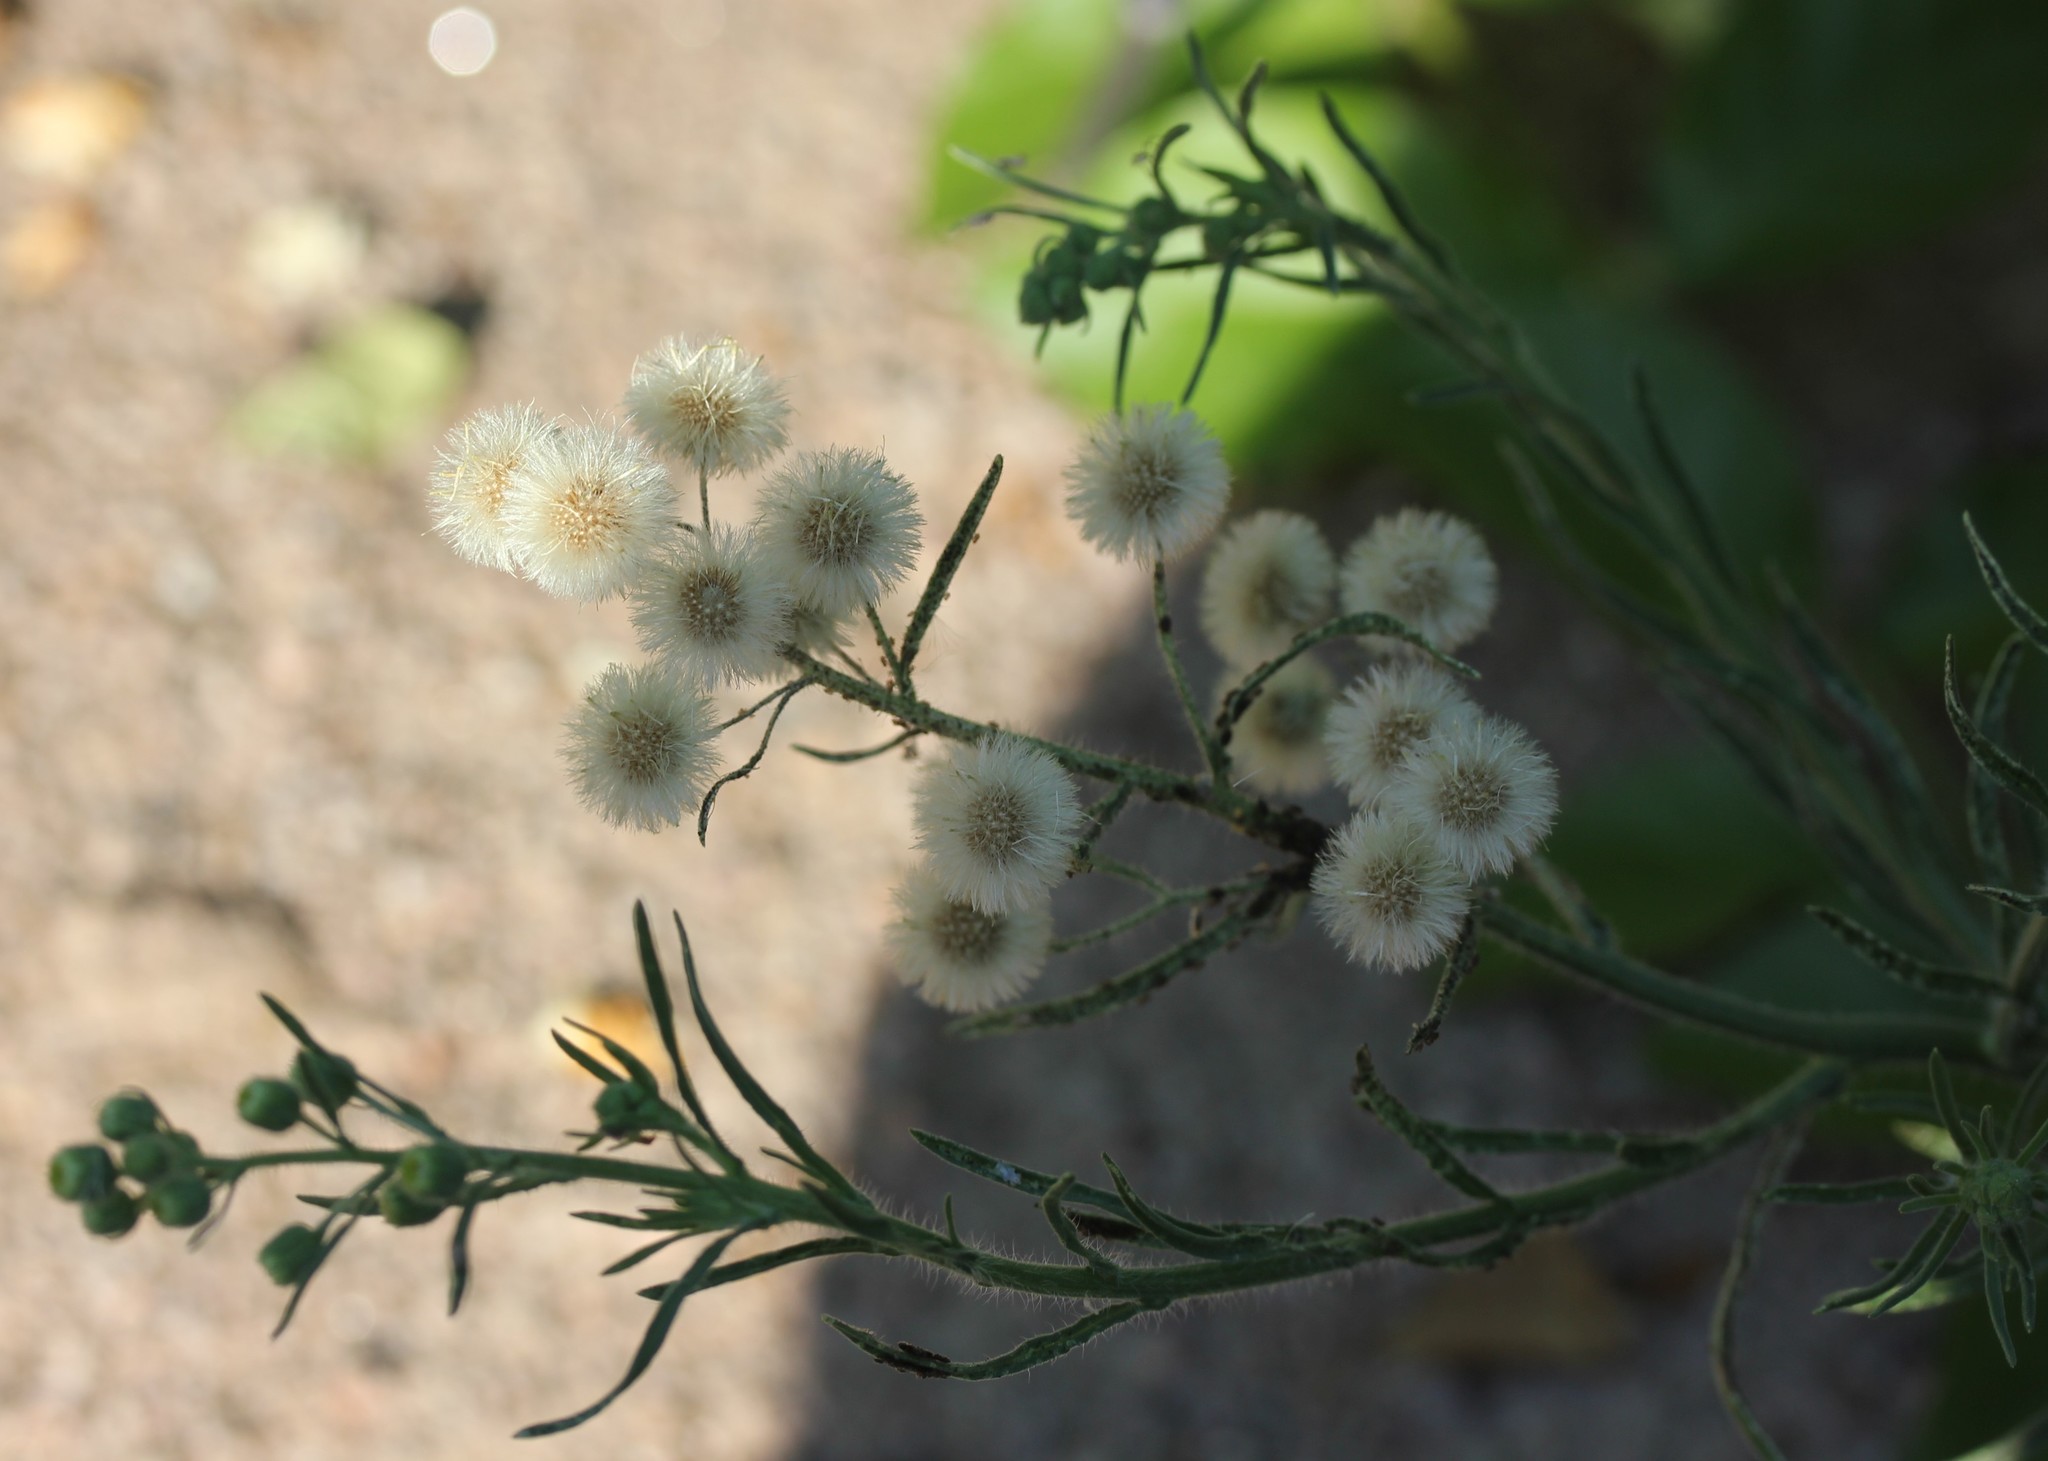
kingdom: Plantae
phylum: Tracheophyta
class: Magnoliopsida
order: Asterales
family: Asteraceae
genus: Erigeron
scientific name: Erigeron bonariensis
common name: Argentine fleabane
